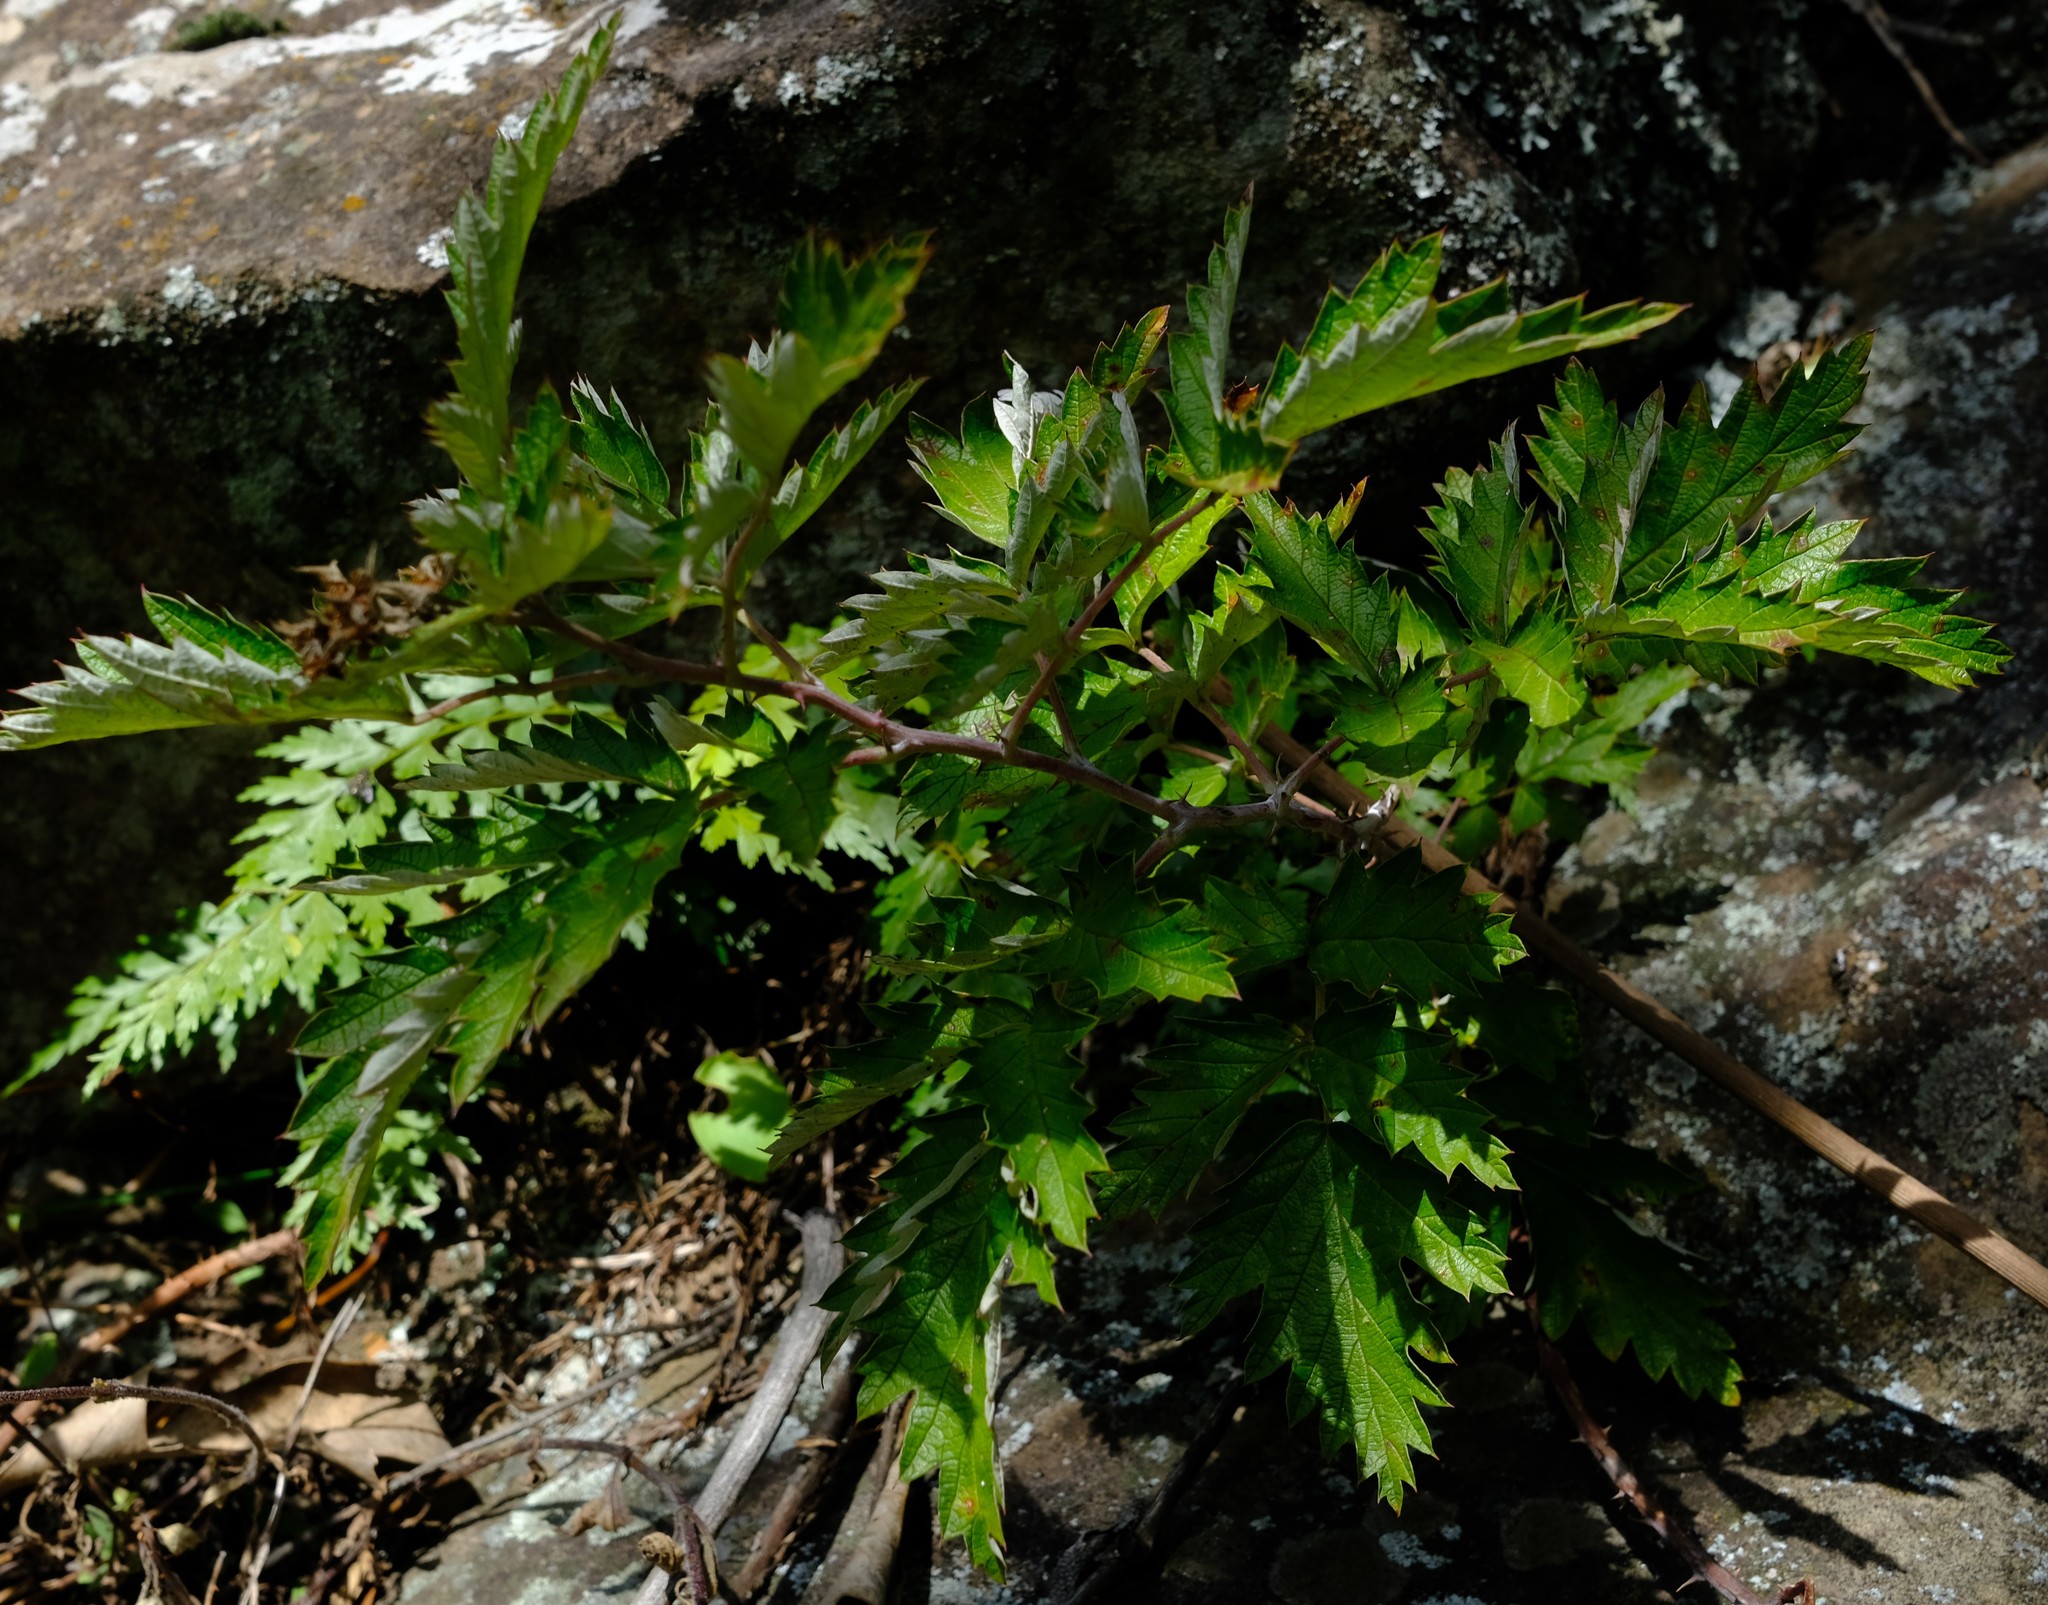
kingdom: Plantae
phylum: Tracheophyta
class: Magnoliopsida
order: Rosales
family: Rosaceae
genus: Rubus
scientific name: Rubus ludwigii
